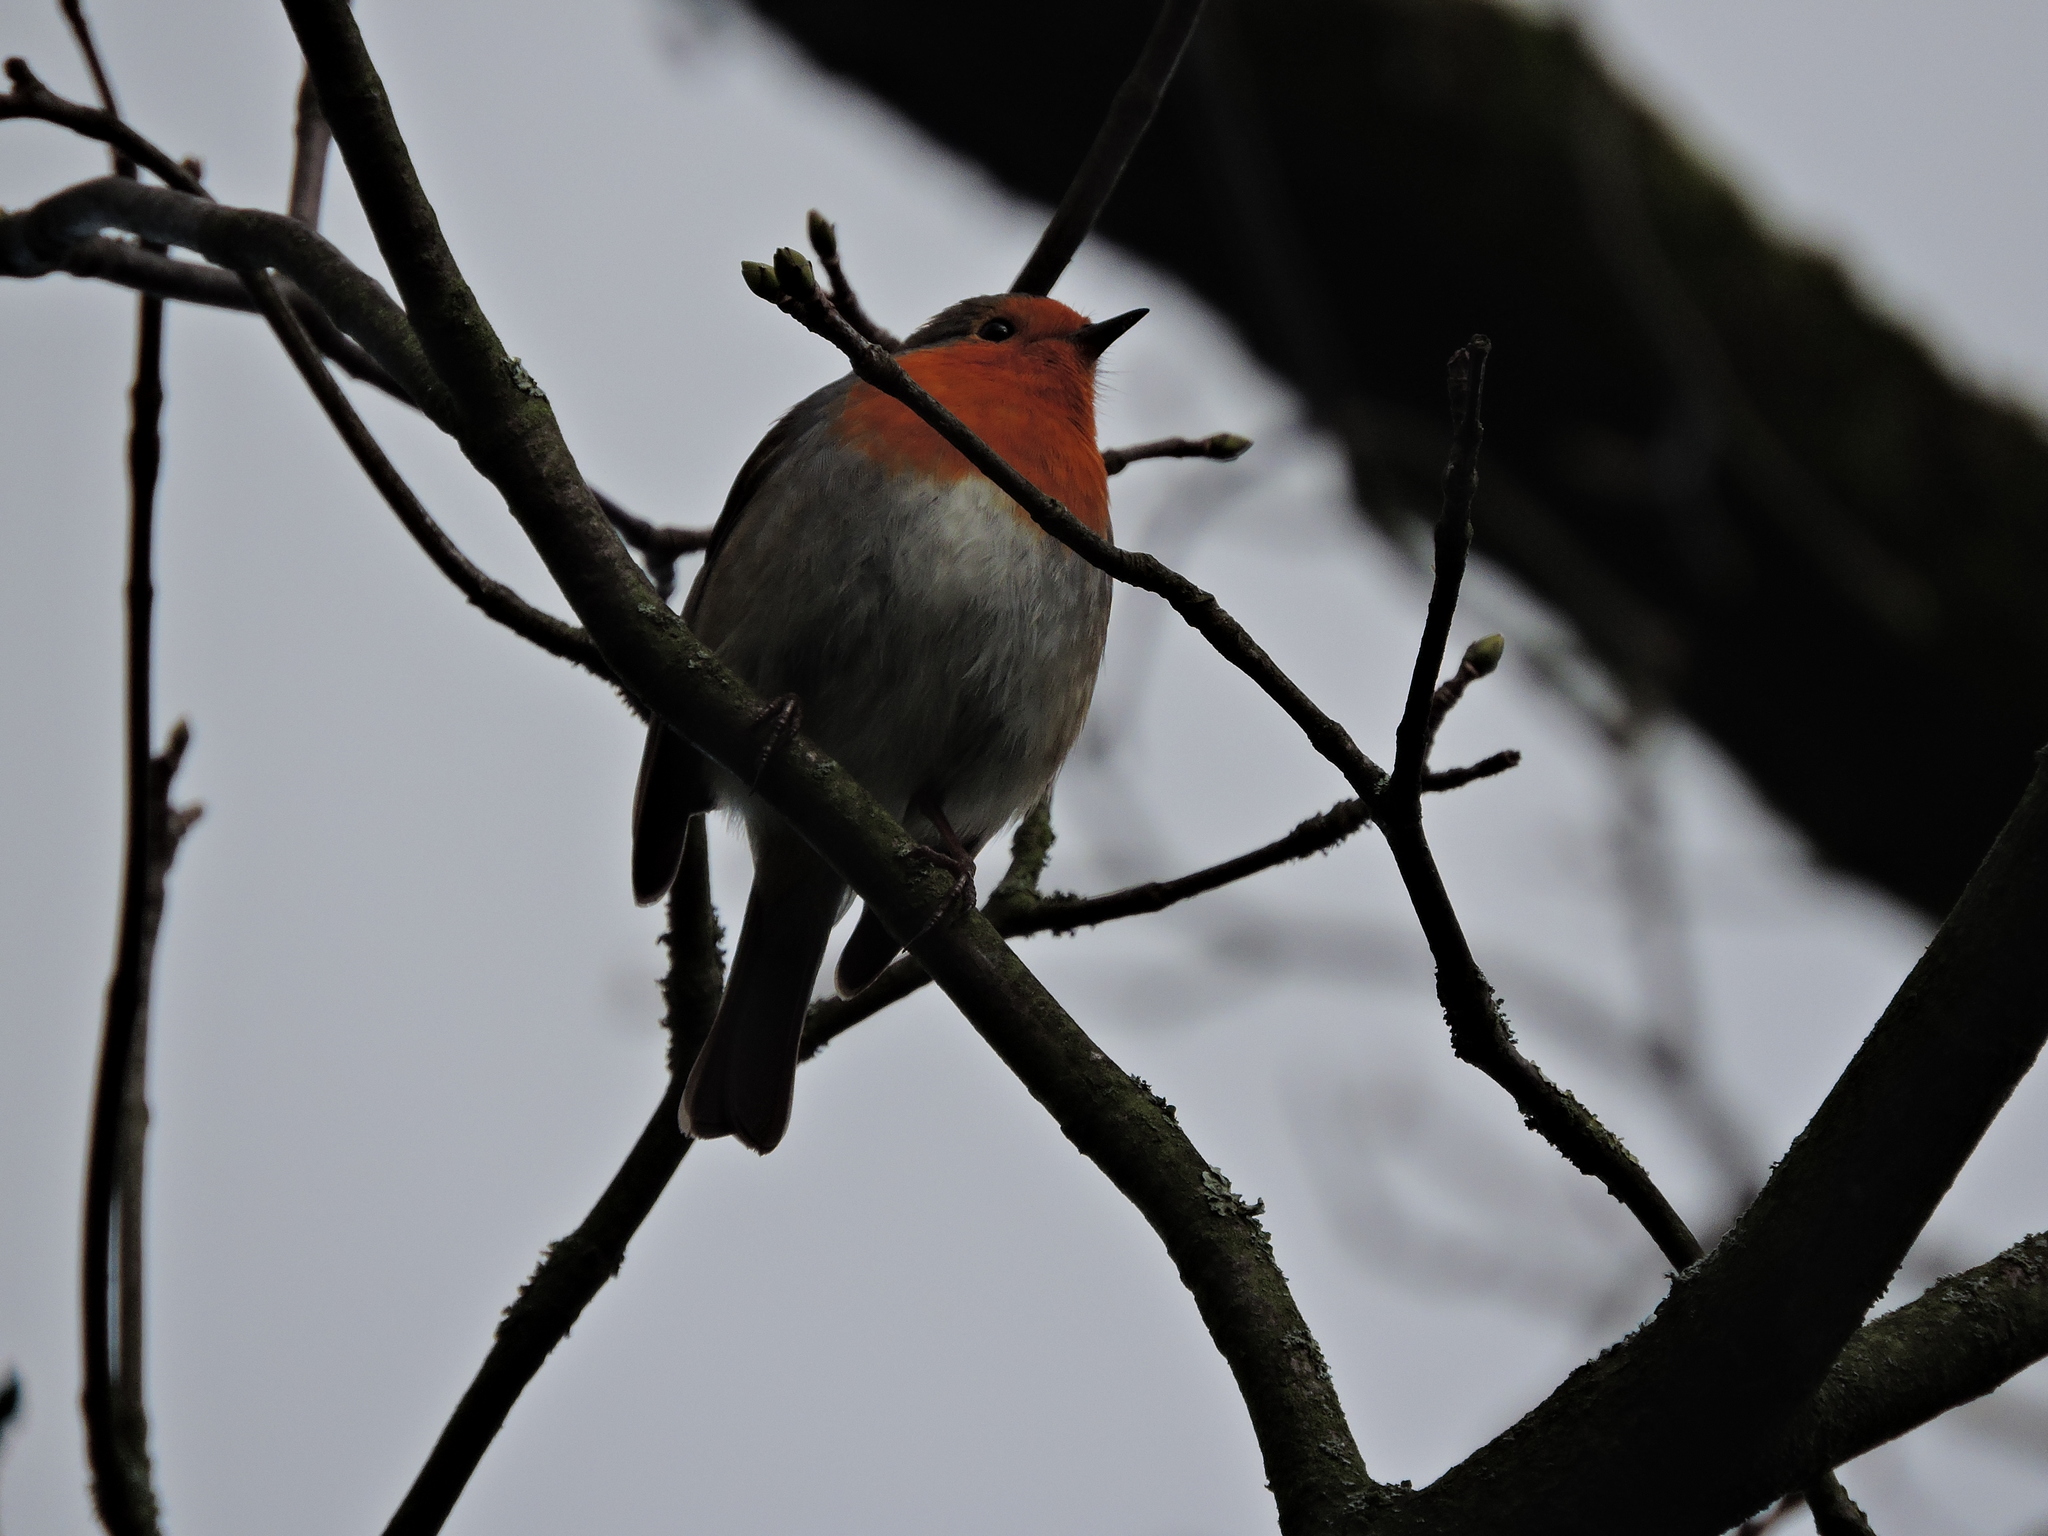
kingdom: Animalia
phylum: Chordata
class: Aves
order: Passeriformes
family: Muscicapidae
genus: Erithacus
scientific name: Erithacus rubecula
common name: European robin
